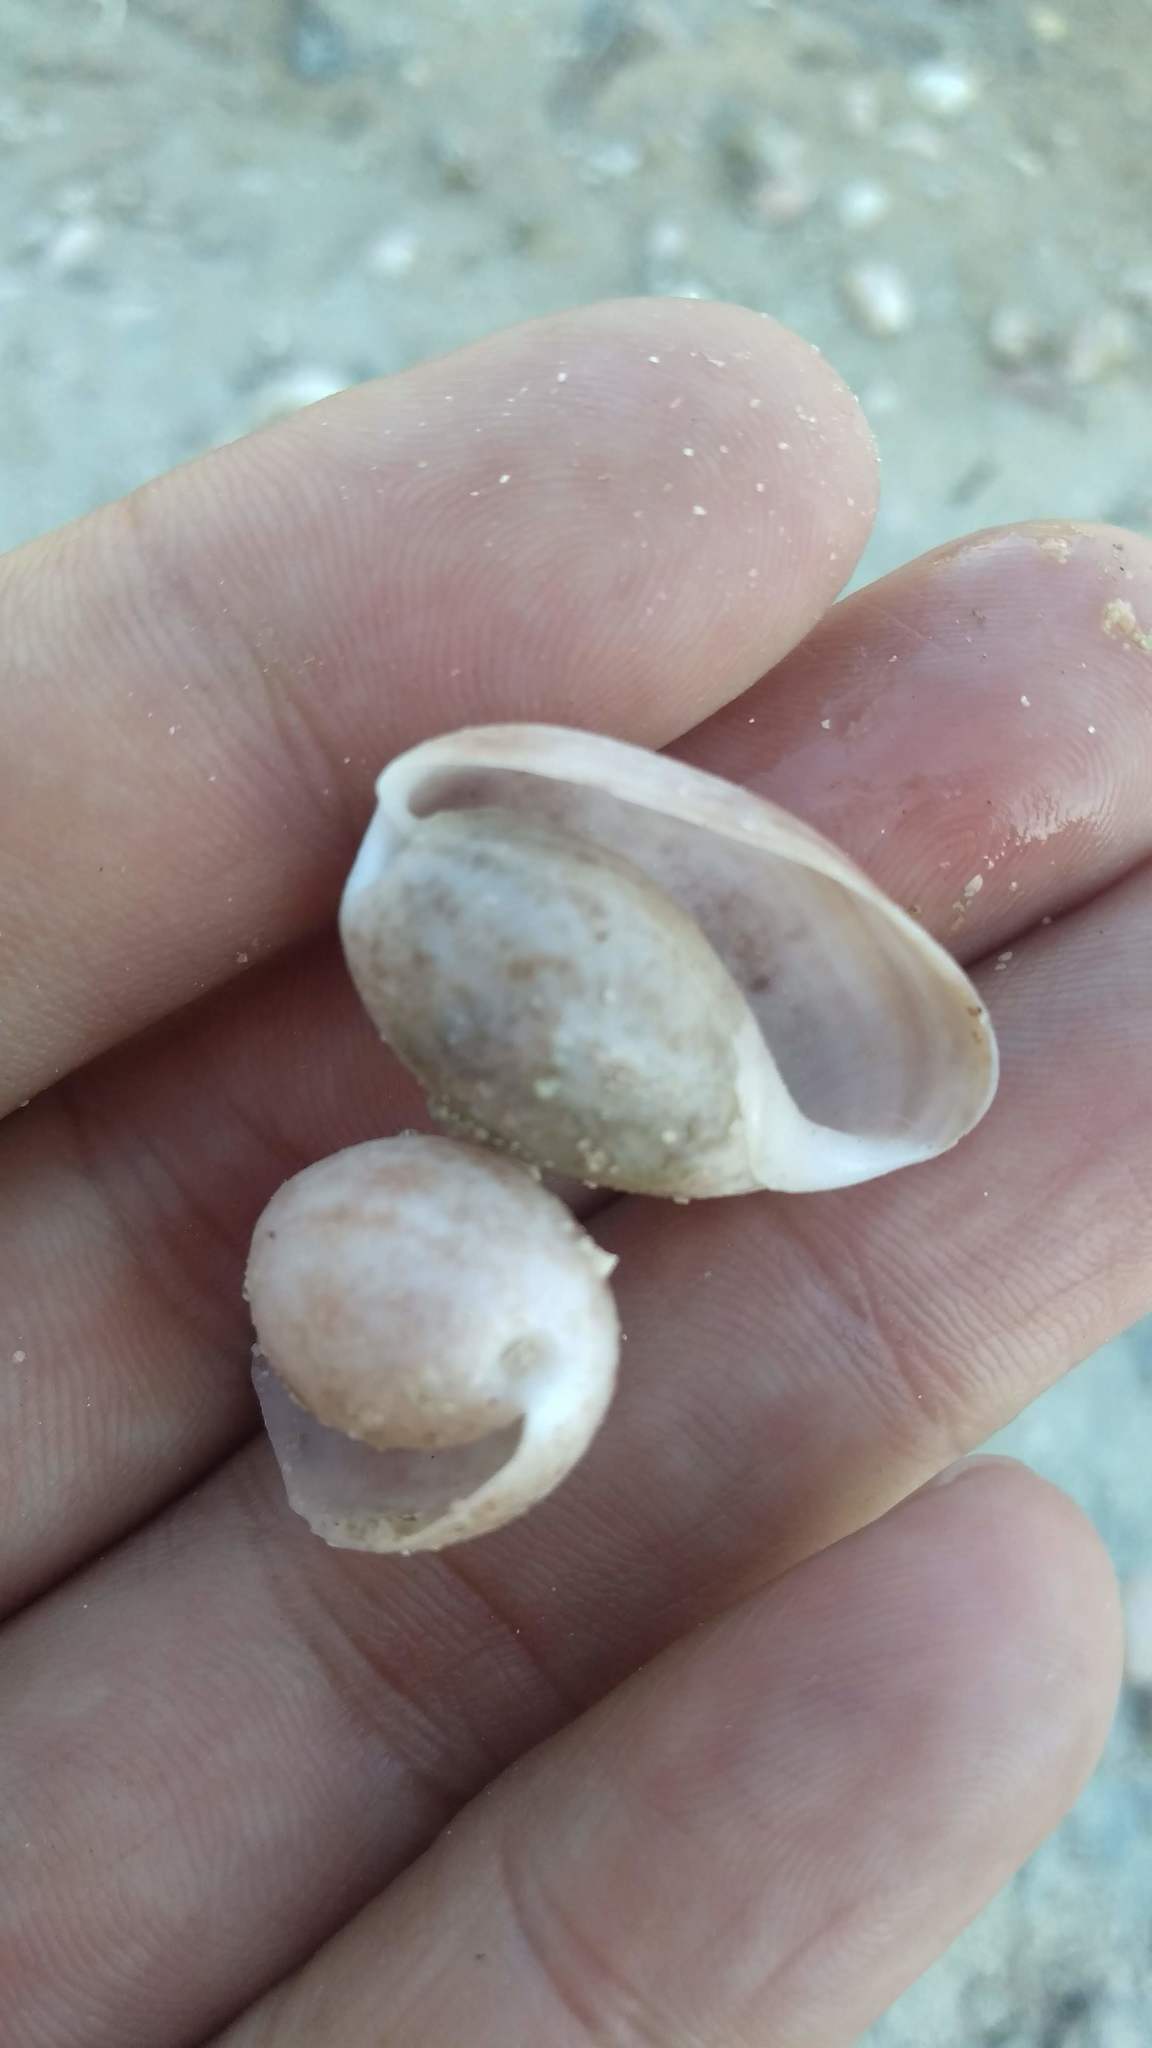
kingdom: Animalia
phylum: Mollusca
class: Gastropoda
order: Cephalaspidea
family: Bullidae
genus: Bulla
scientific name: Bulla occidentalis
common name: Common west-indian bubble
